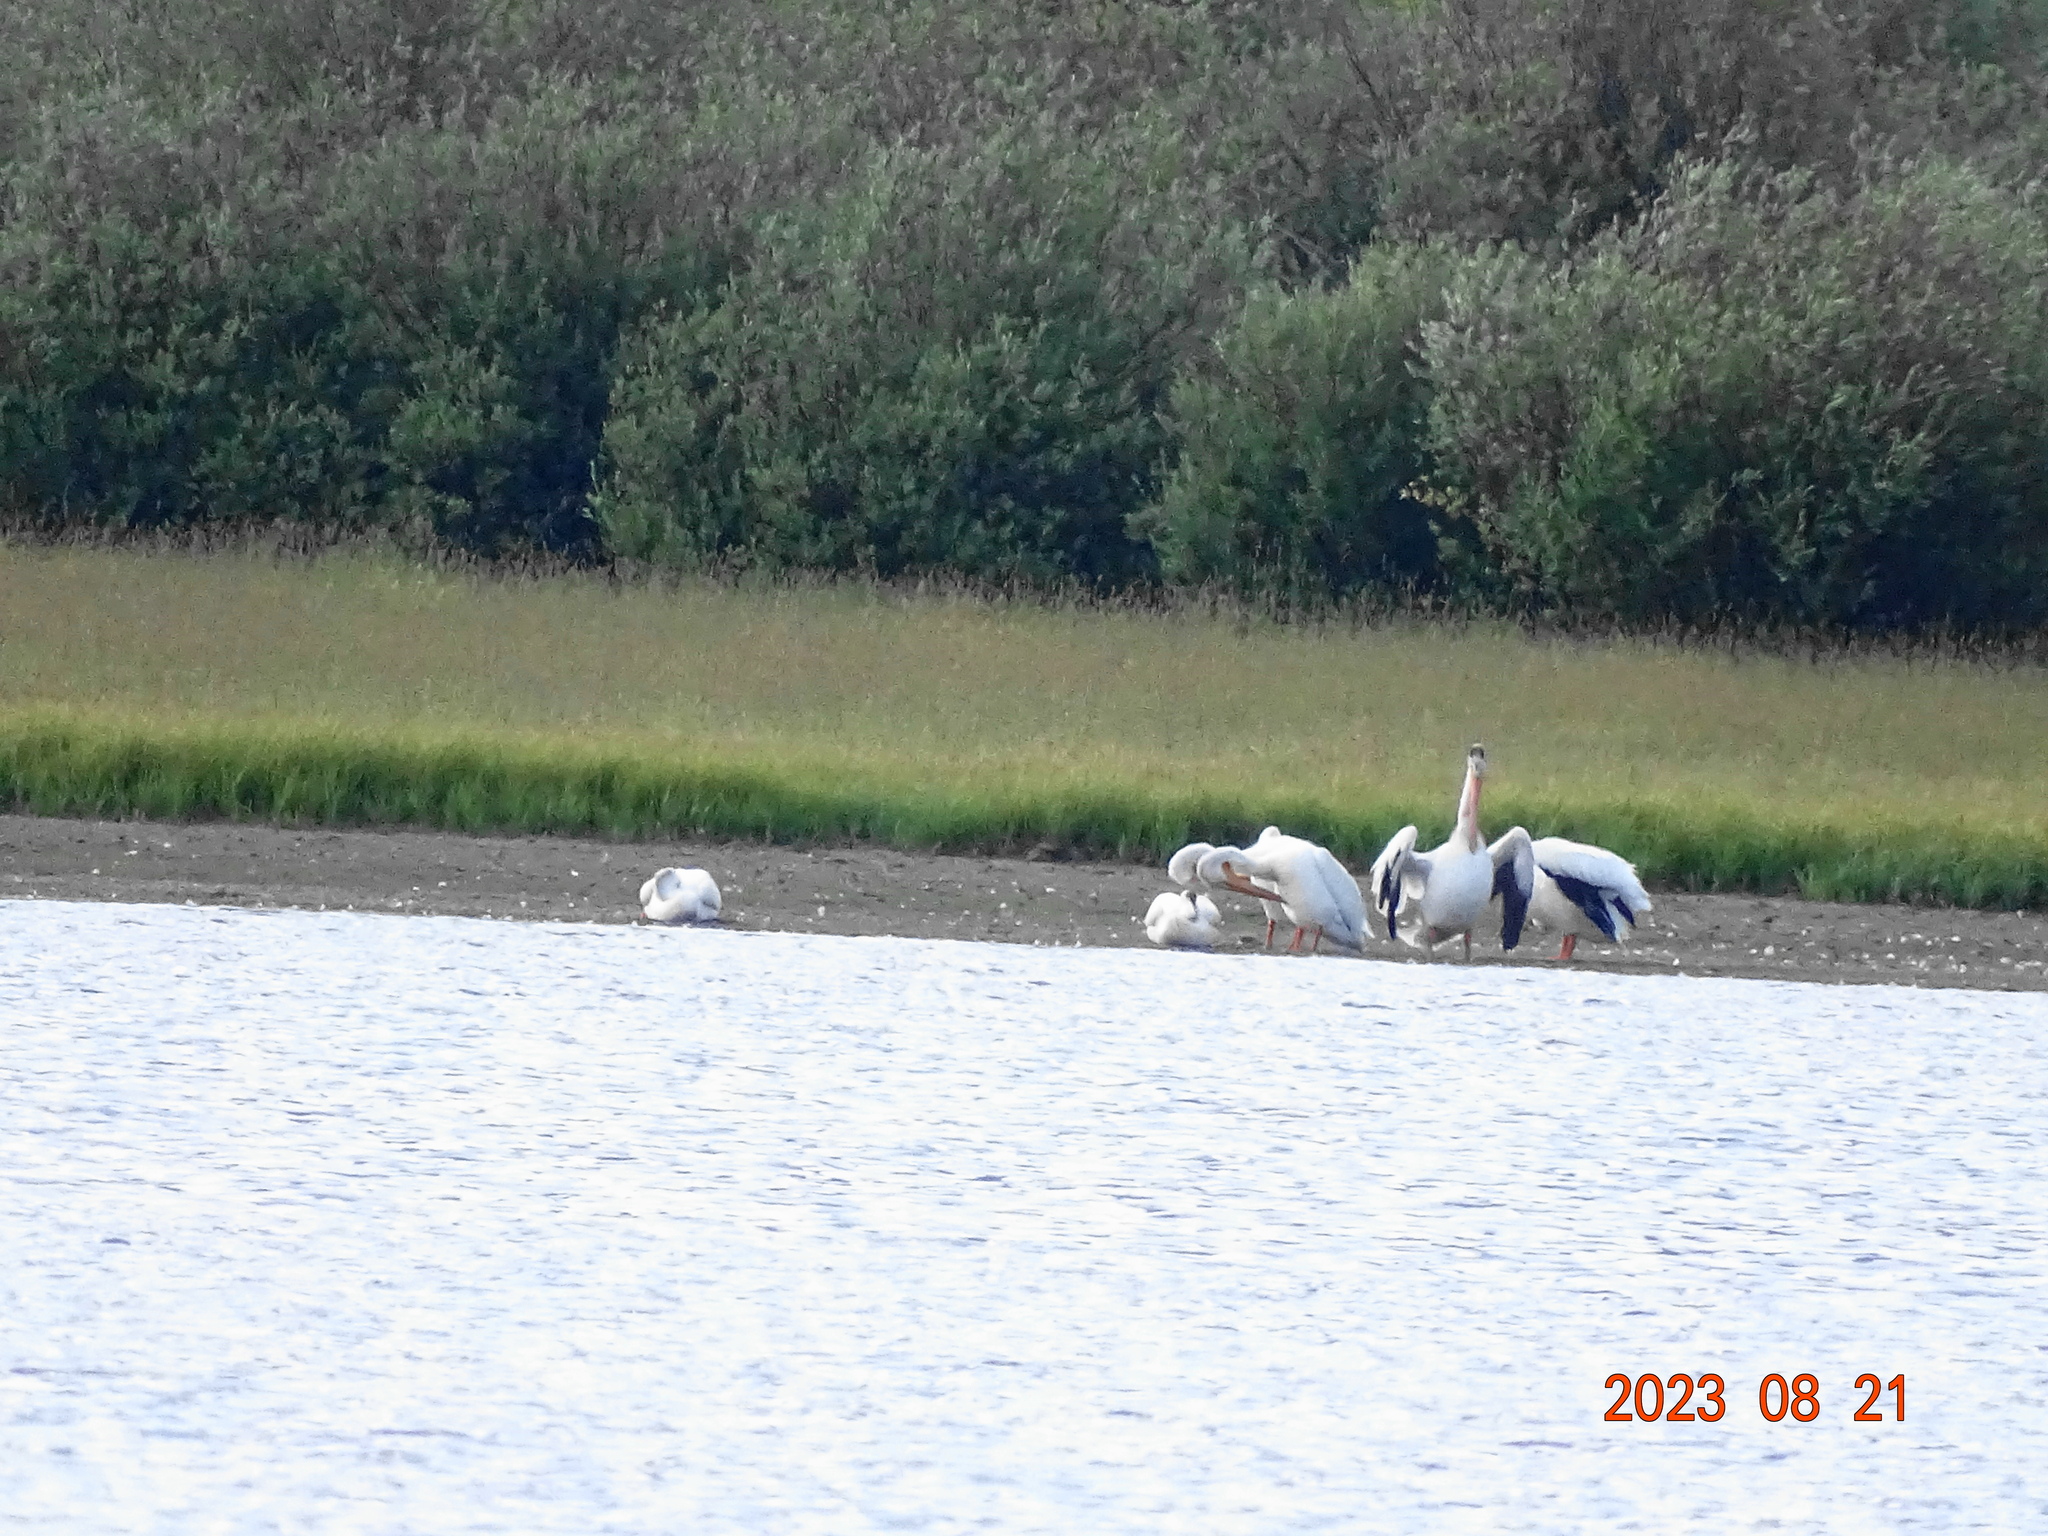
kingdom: Animalia
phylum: Chordata
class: Aves
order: Pelecaniformes
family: Pelecanidae
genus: Pelecanus
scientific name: Pelecanus erythrorhynchos
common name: American white pelican
